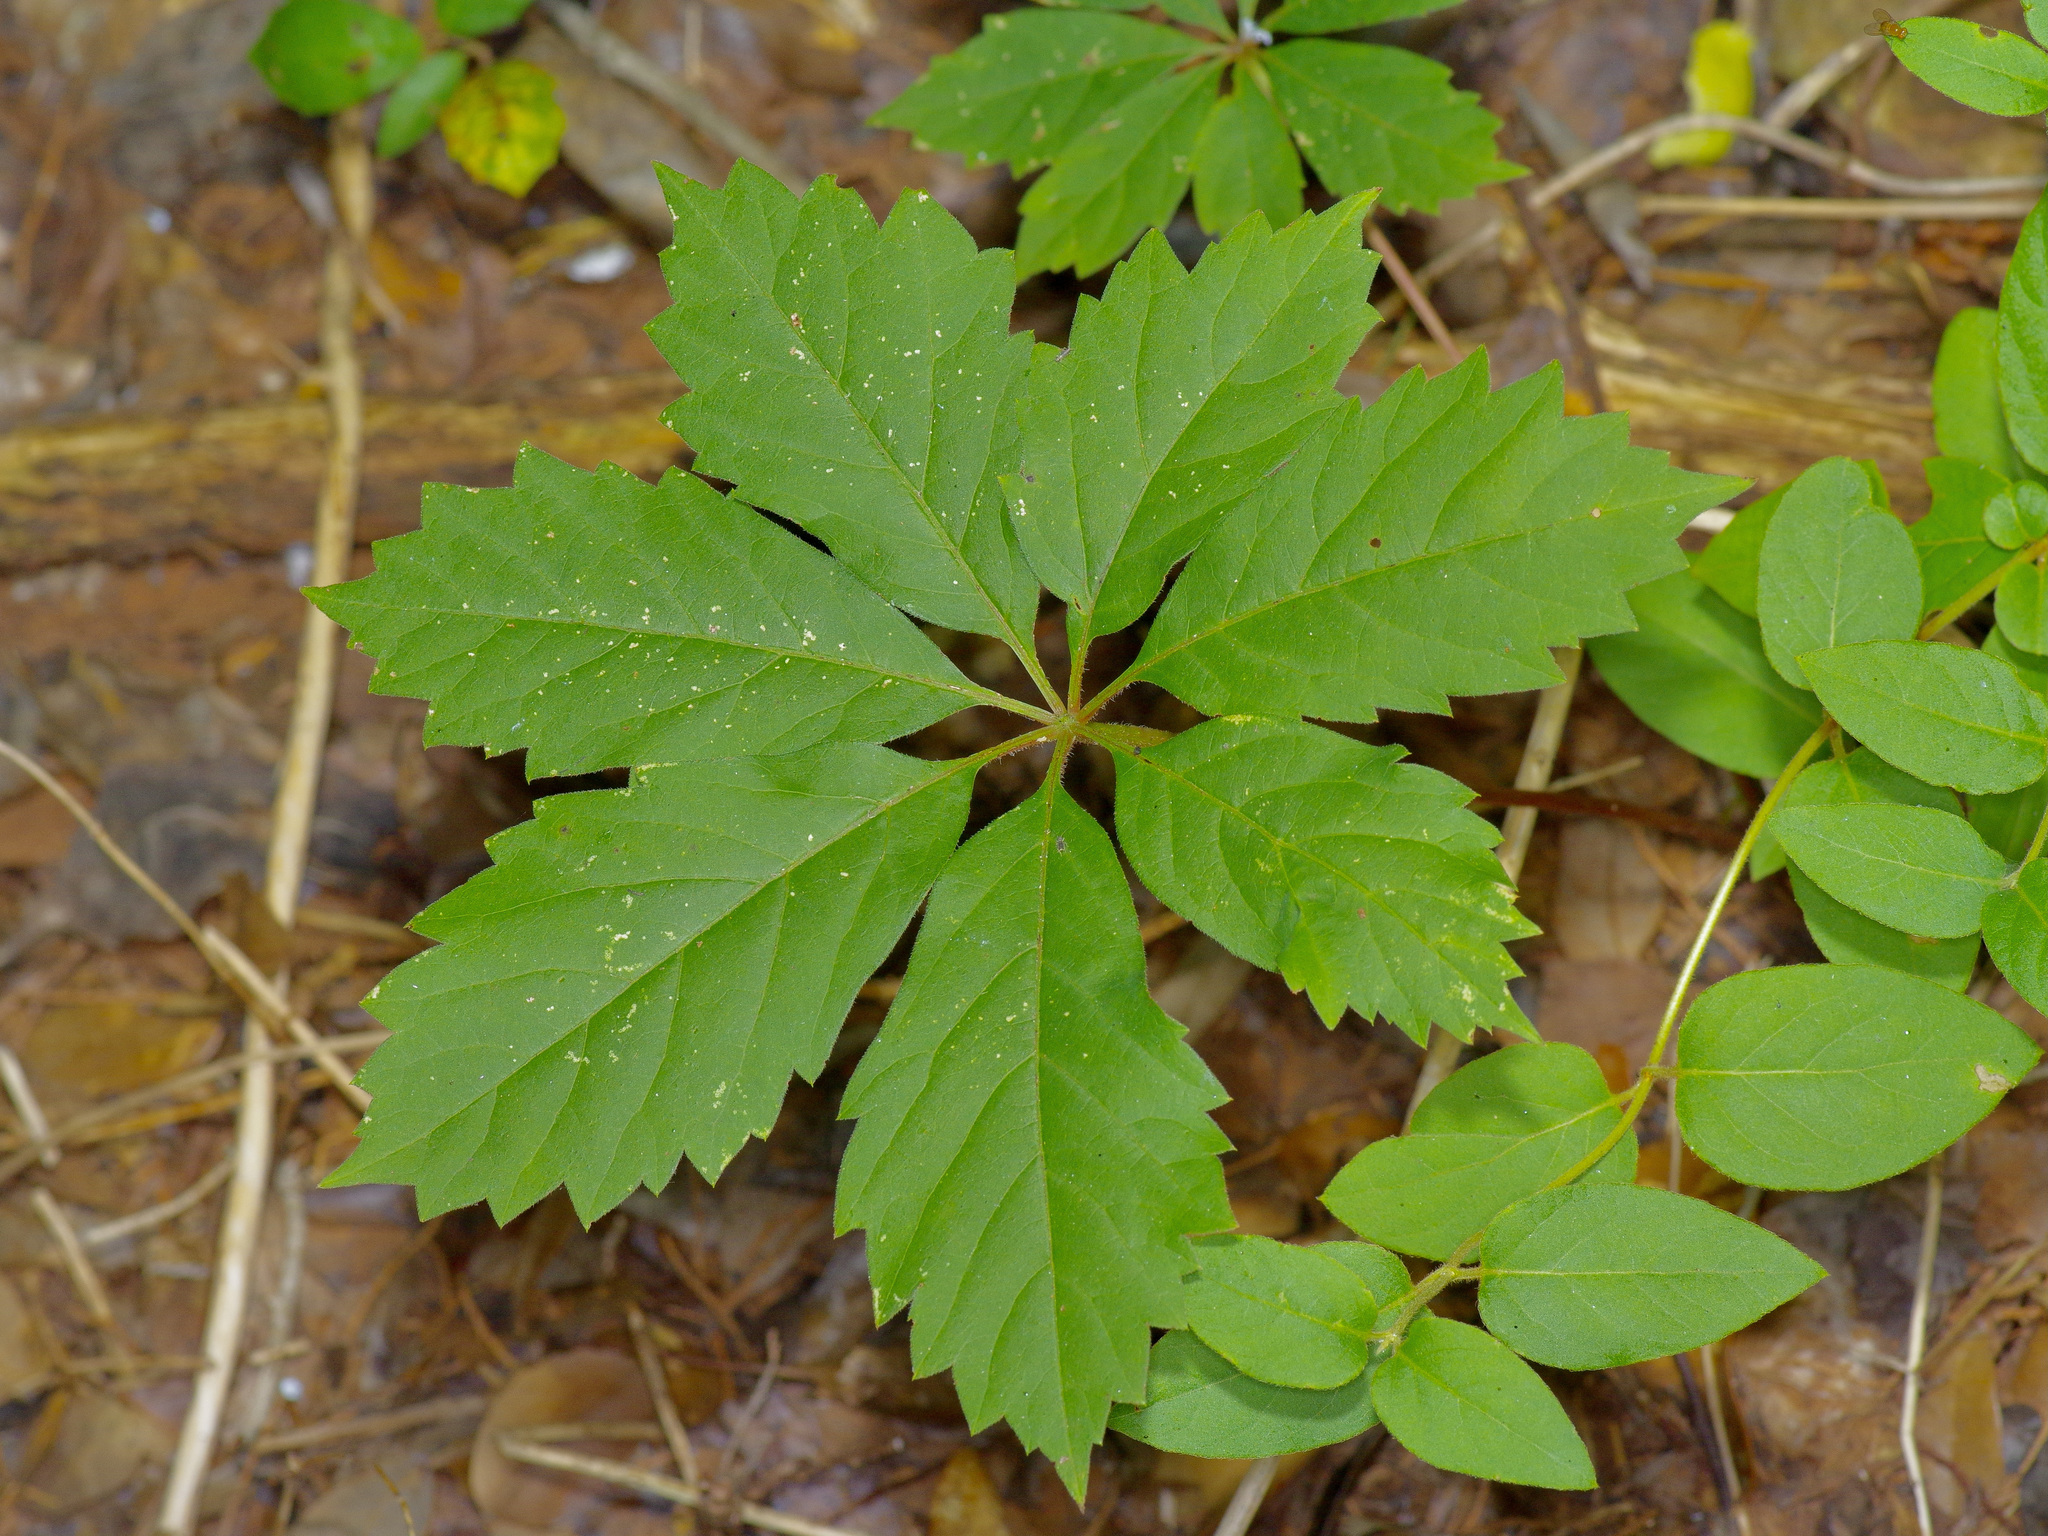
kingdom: Plantae
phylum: Tracheophyta
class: Magnoliopsida
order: Vitales
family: Vitaceae
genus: Parthenocissus
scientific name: Parthenocissus heptaphylla
